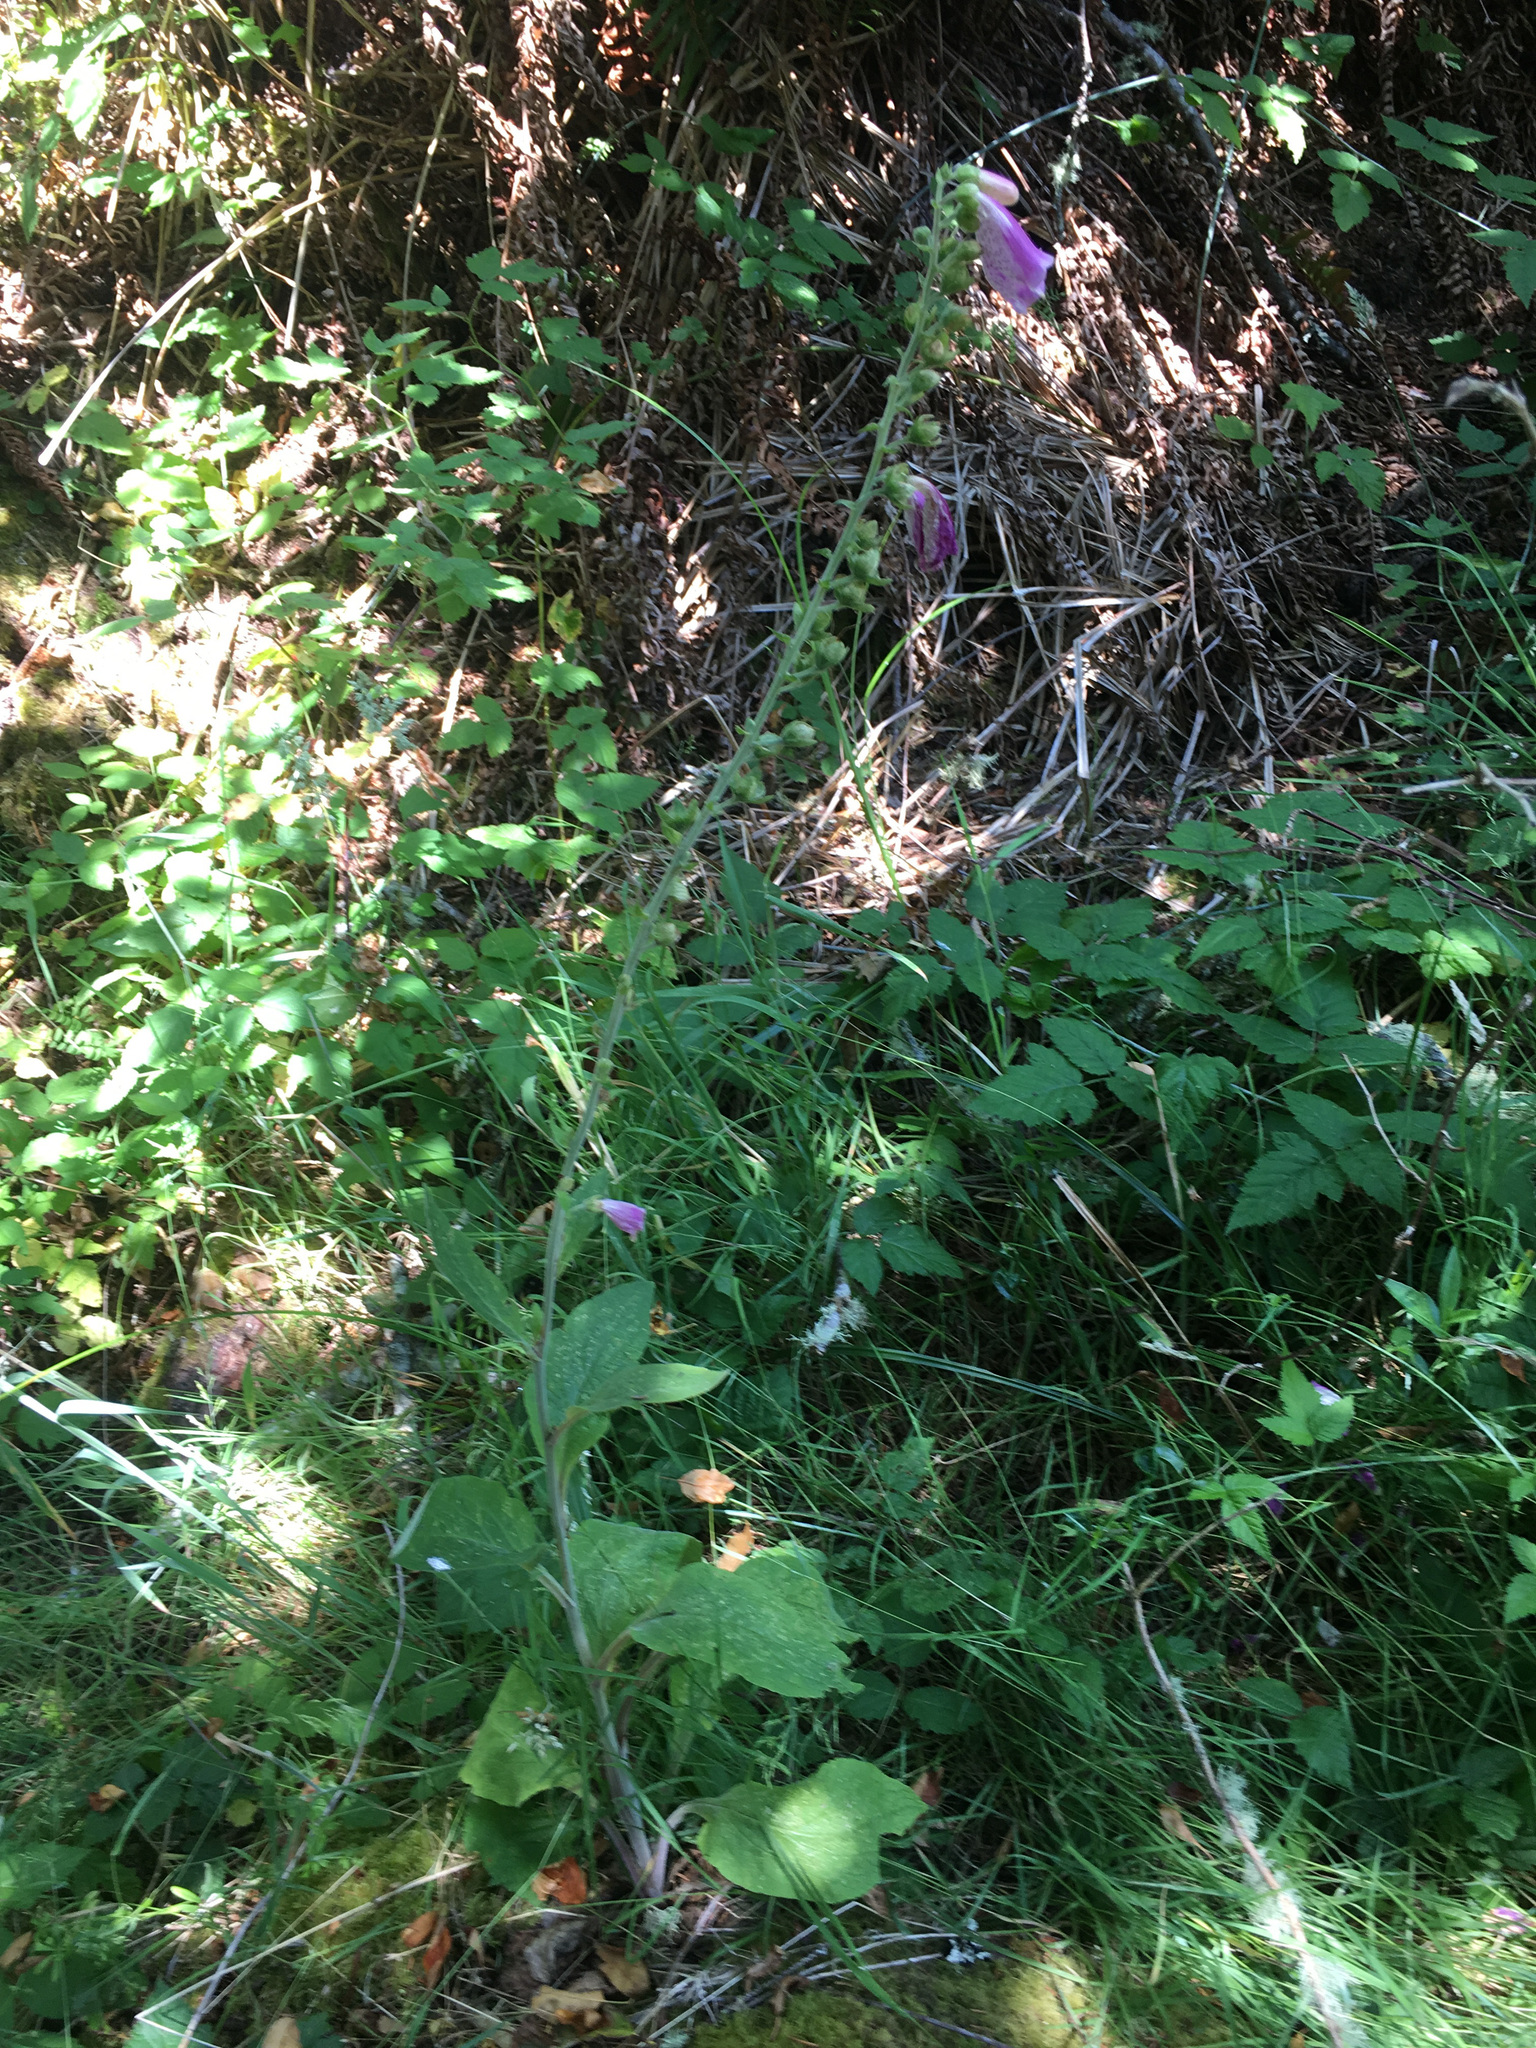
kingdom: Plantae
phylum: Tracheophyta
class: Magnoliopsida
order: Lamiales
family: Plantaginaceae
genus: Digitalis
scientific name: Digitalis purpurea
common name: Foxglove
